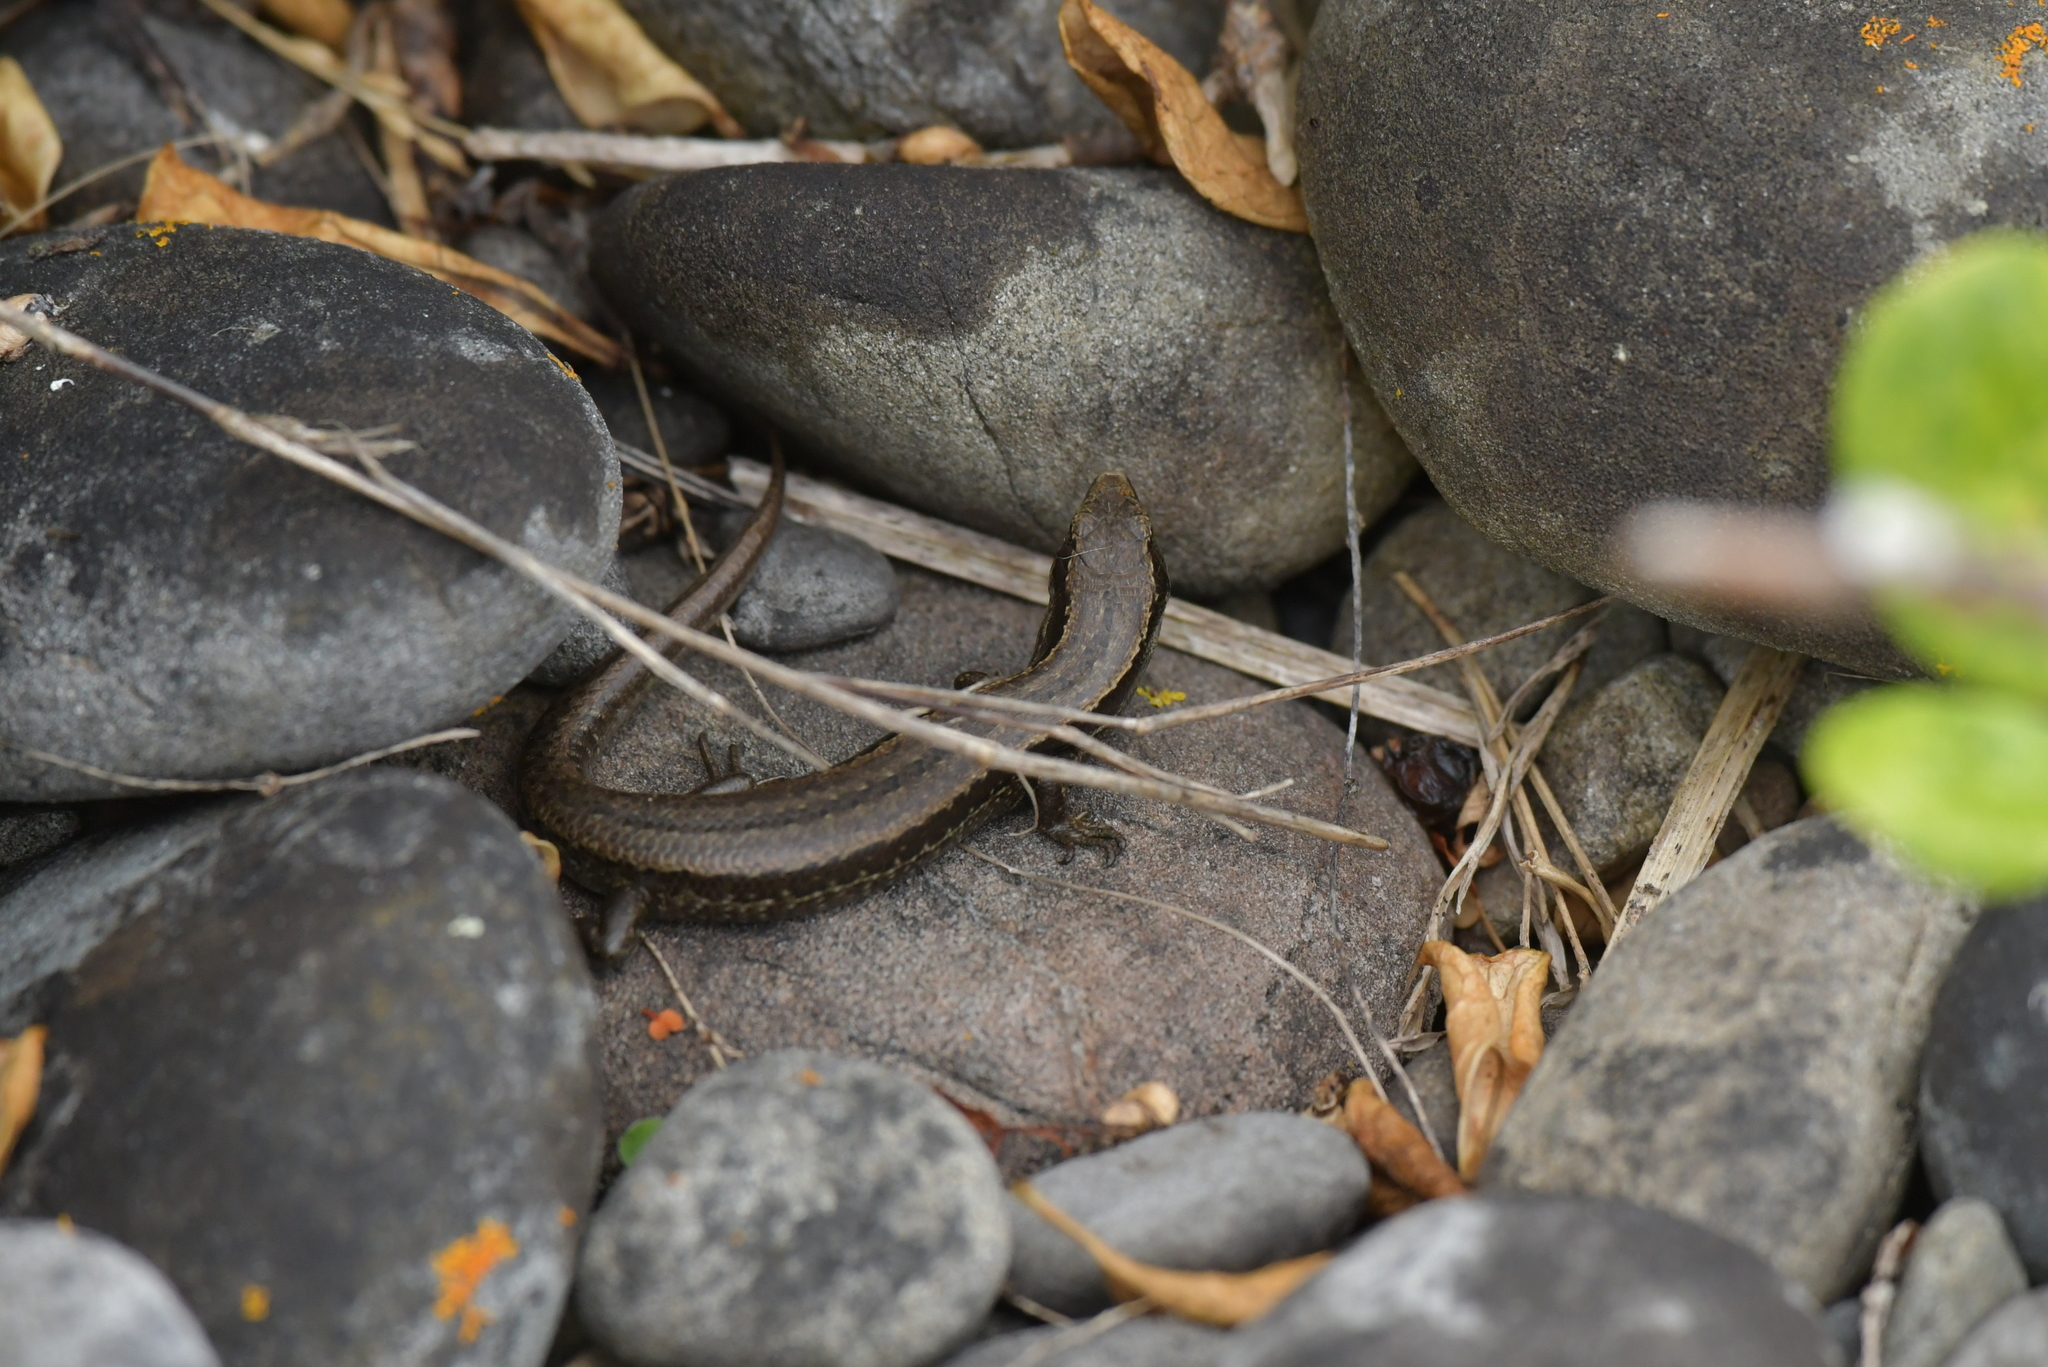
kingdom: Animalia
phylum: Chordata
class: Squamata
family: Scincidae
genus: Oligosoma
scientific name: Oligosoma polychroma
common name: Common new zealand skink
